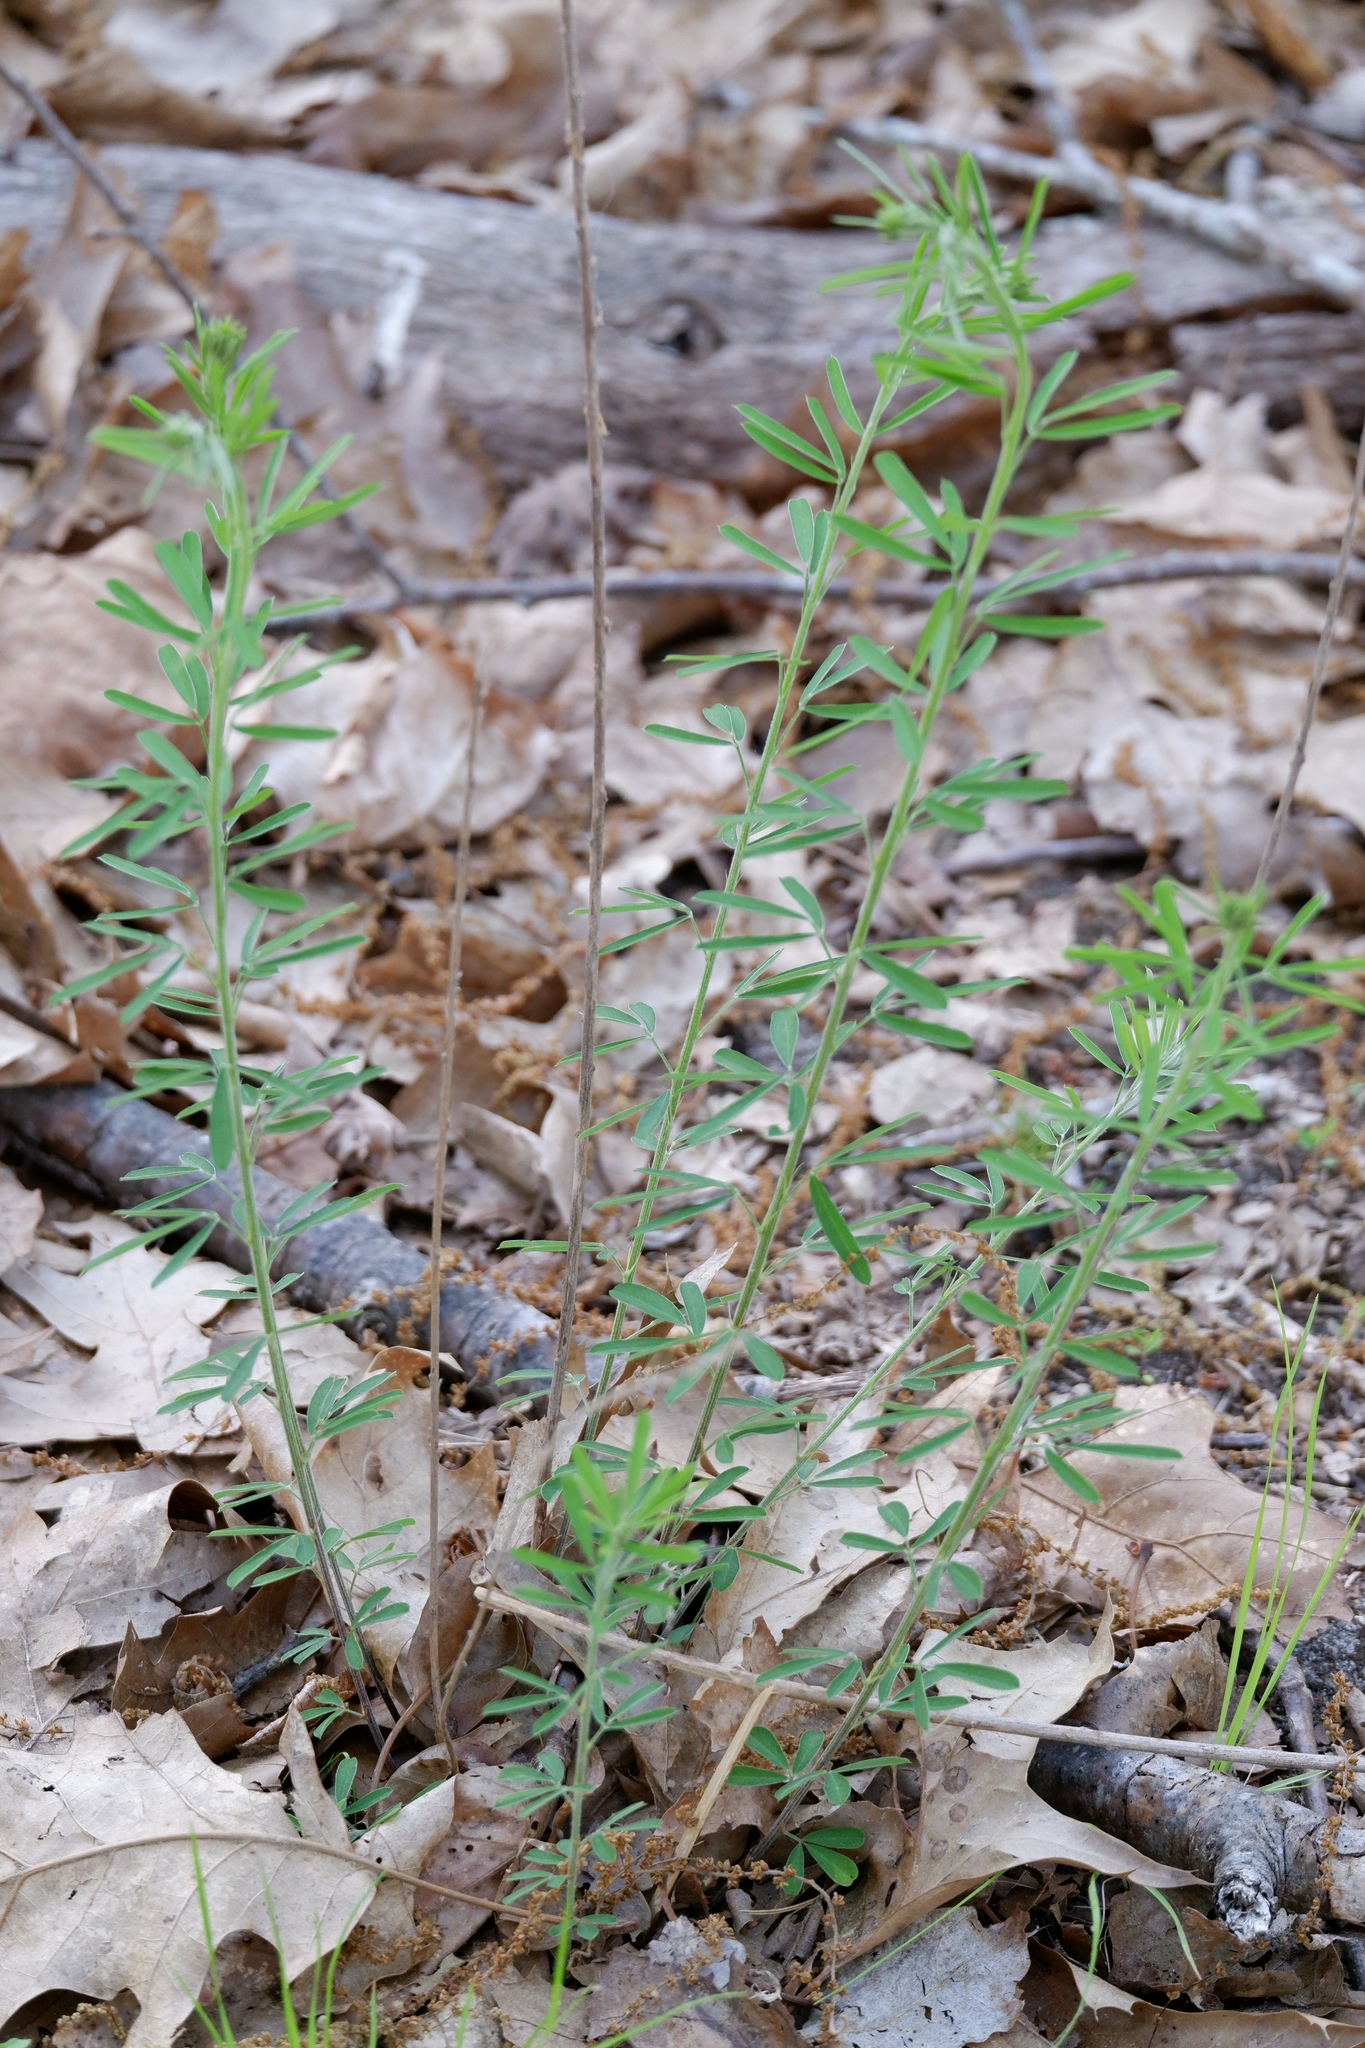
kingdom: Plantae
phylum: Tracheophyta
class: Magnoliopsida
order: Fabales
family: Fabaceae
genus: Lespedeza
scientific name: Lespedeza cuneata
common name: Chinese bush-clover
